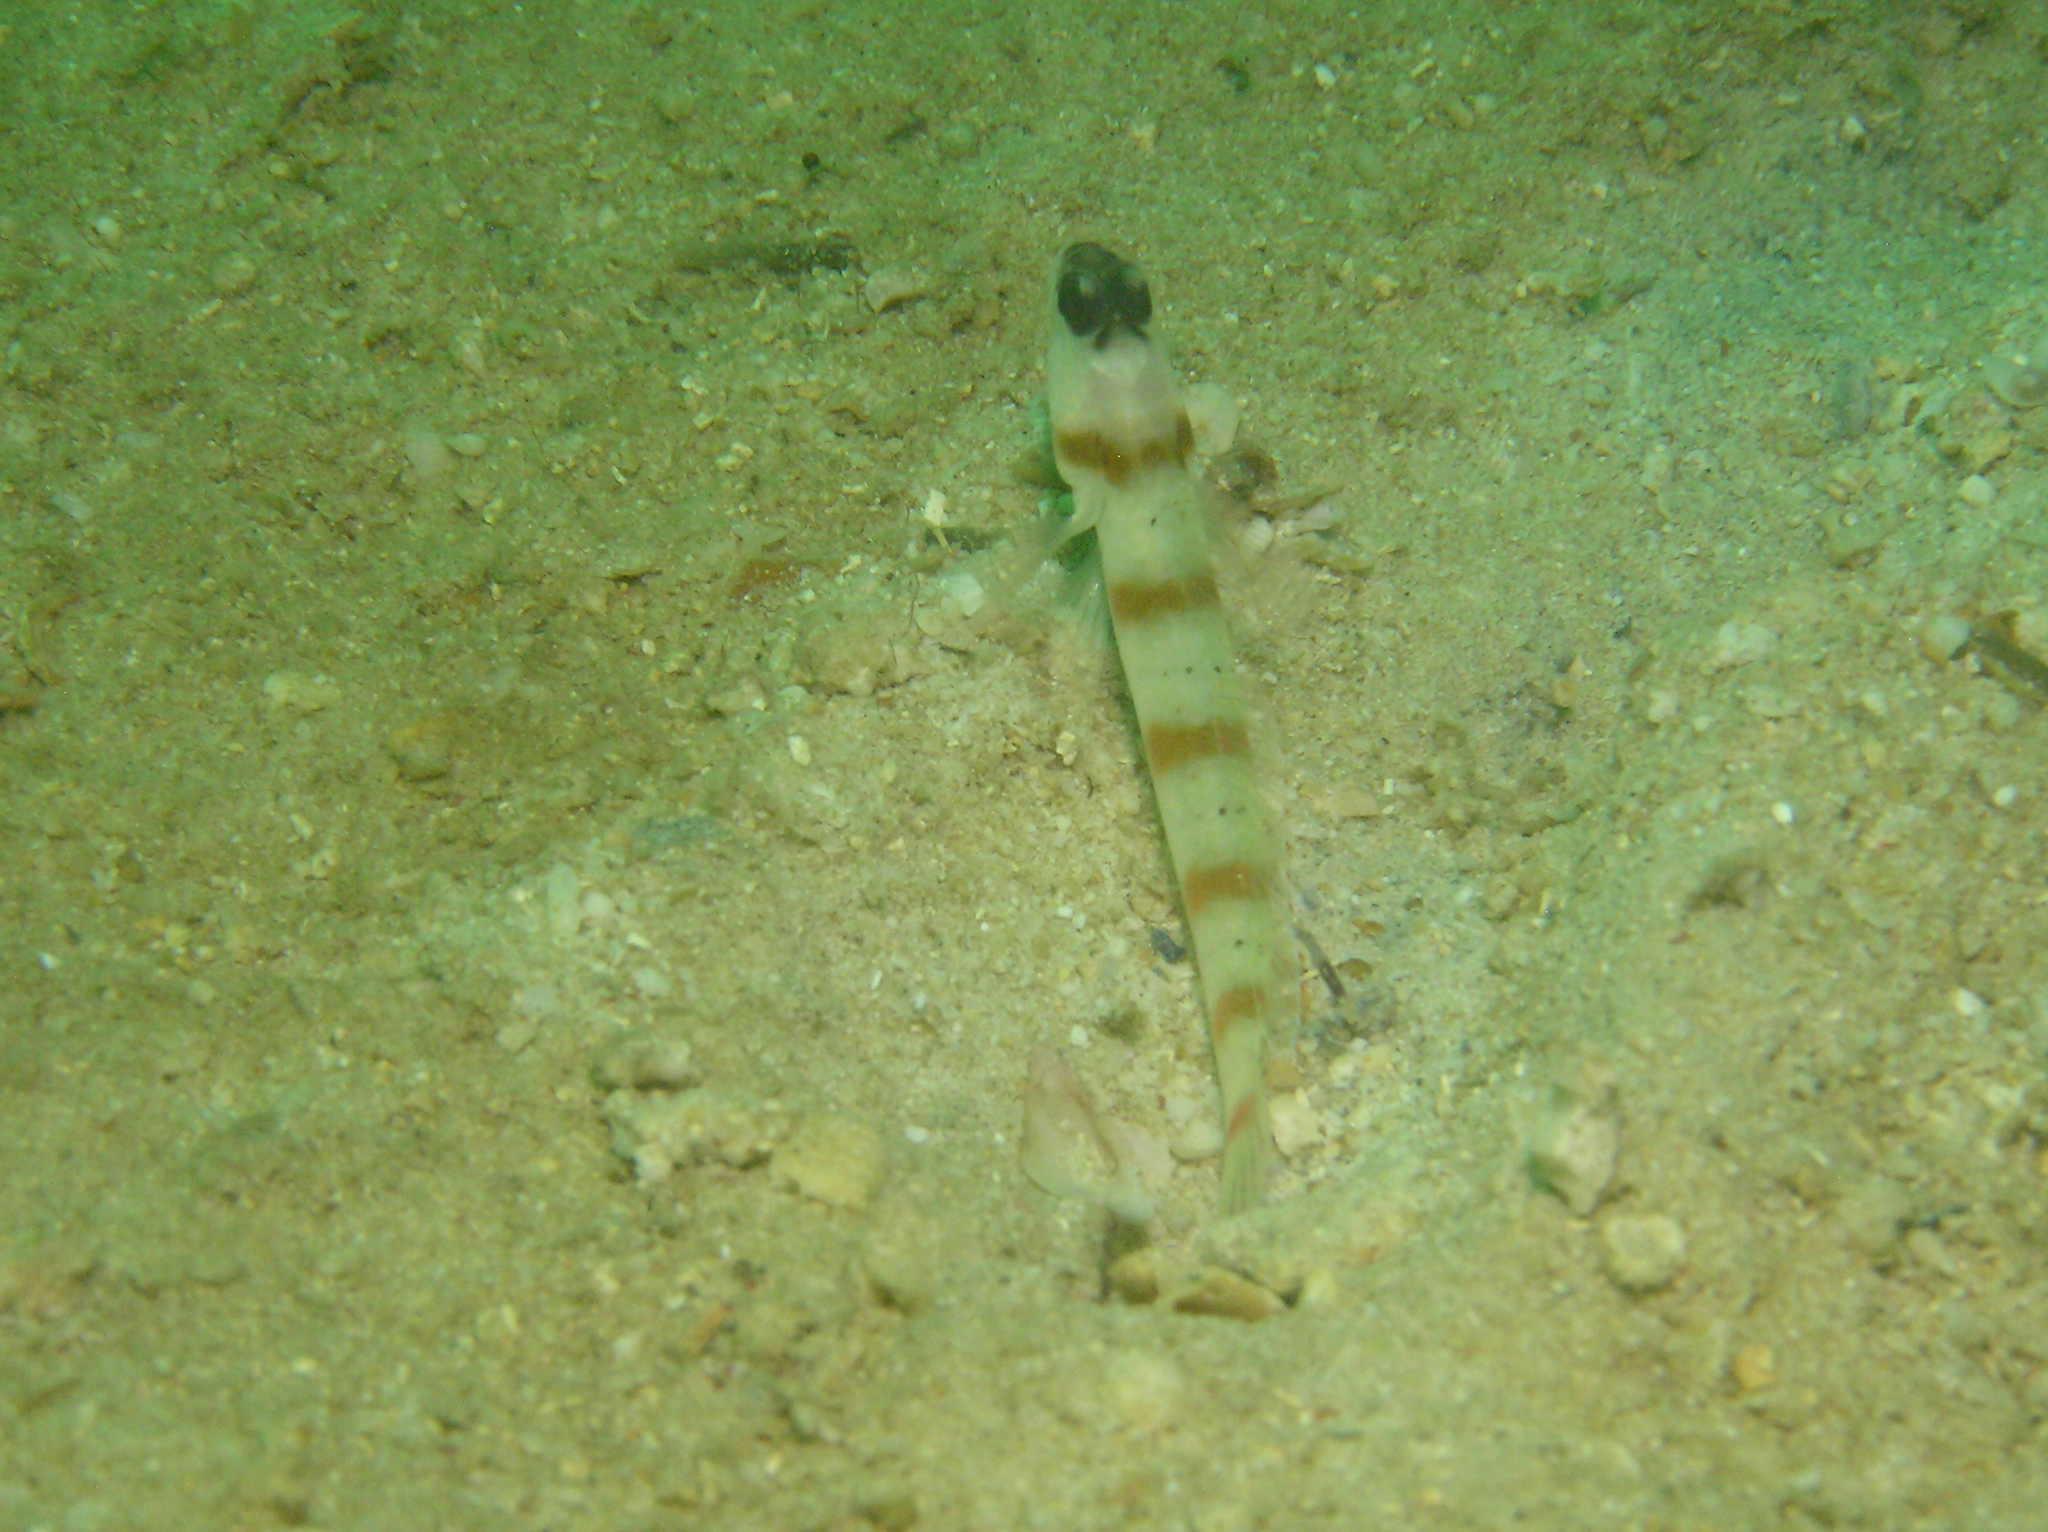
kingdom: Animalia
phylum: Chordata
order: Perciformes
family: Gobiidae
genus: Amblyeleotris
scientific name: Amblyeleotris rubrimarginata
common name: Redmargin shrimpgoby
